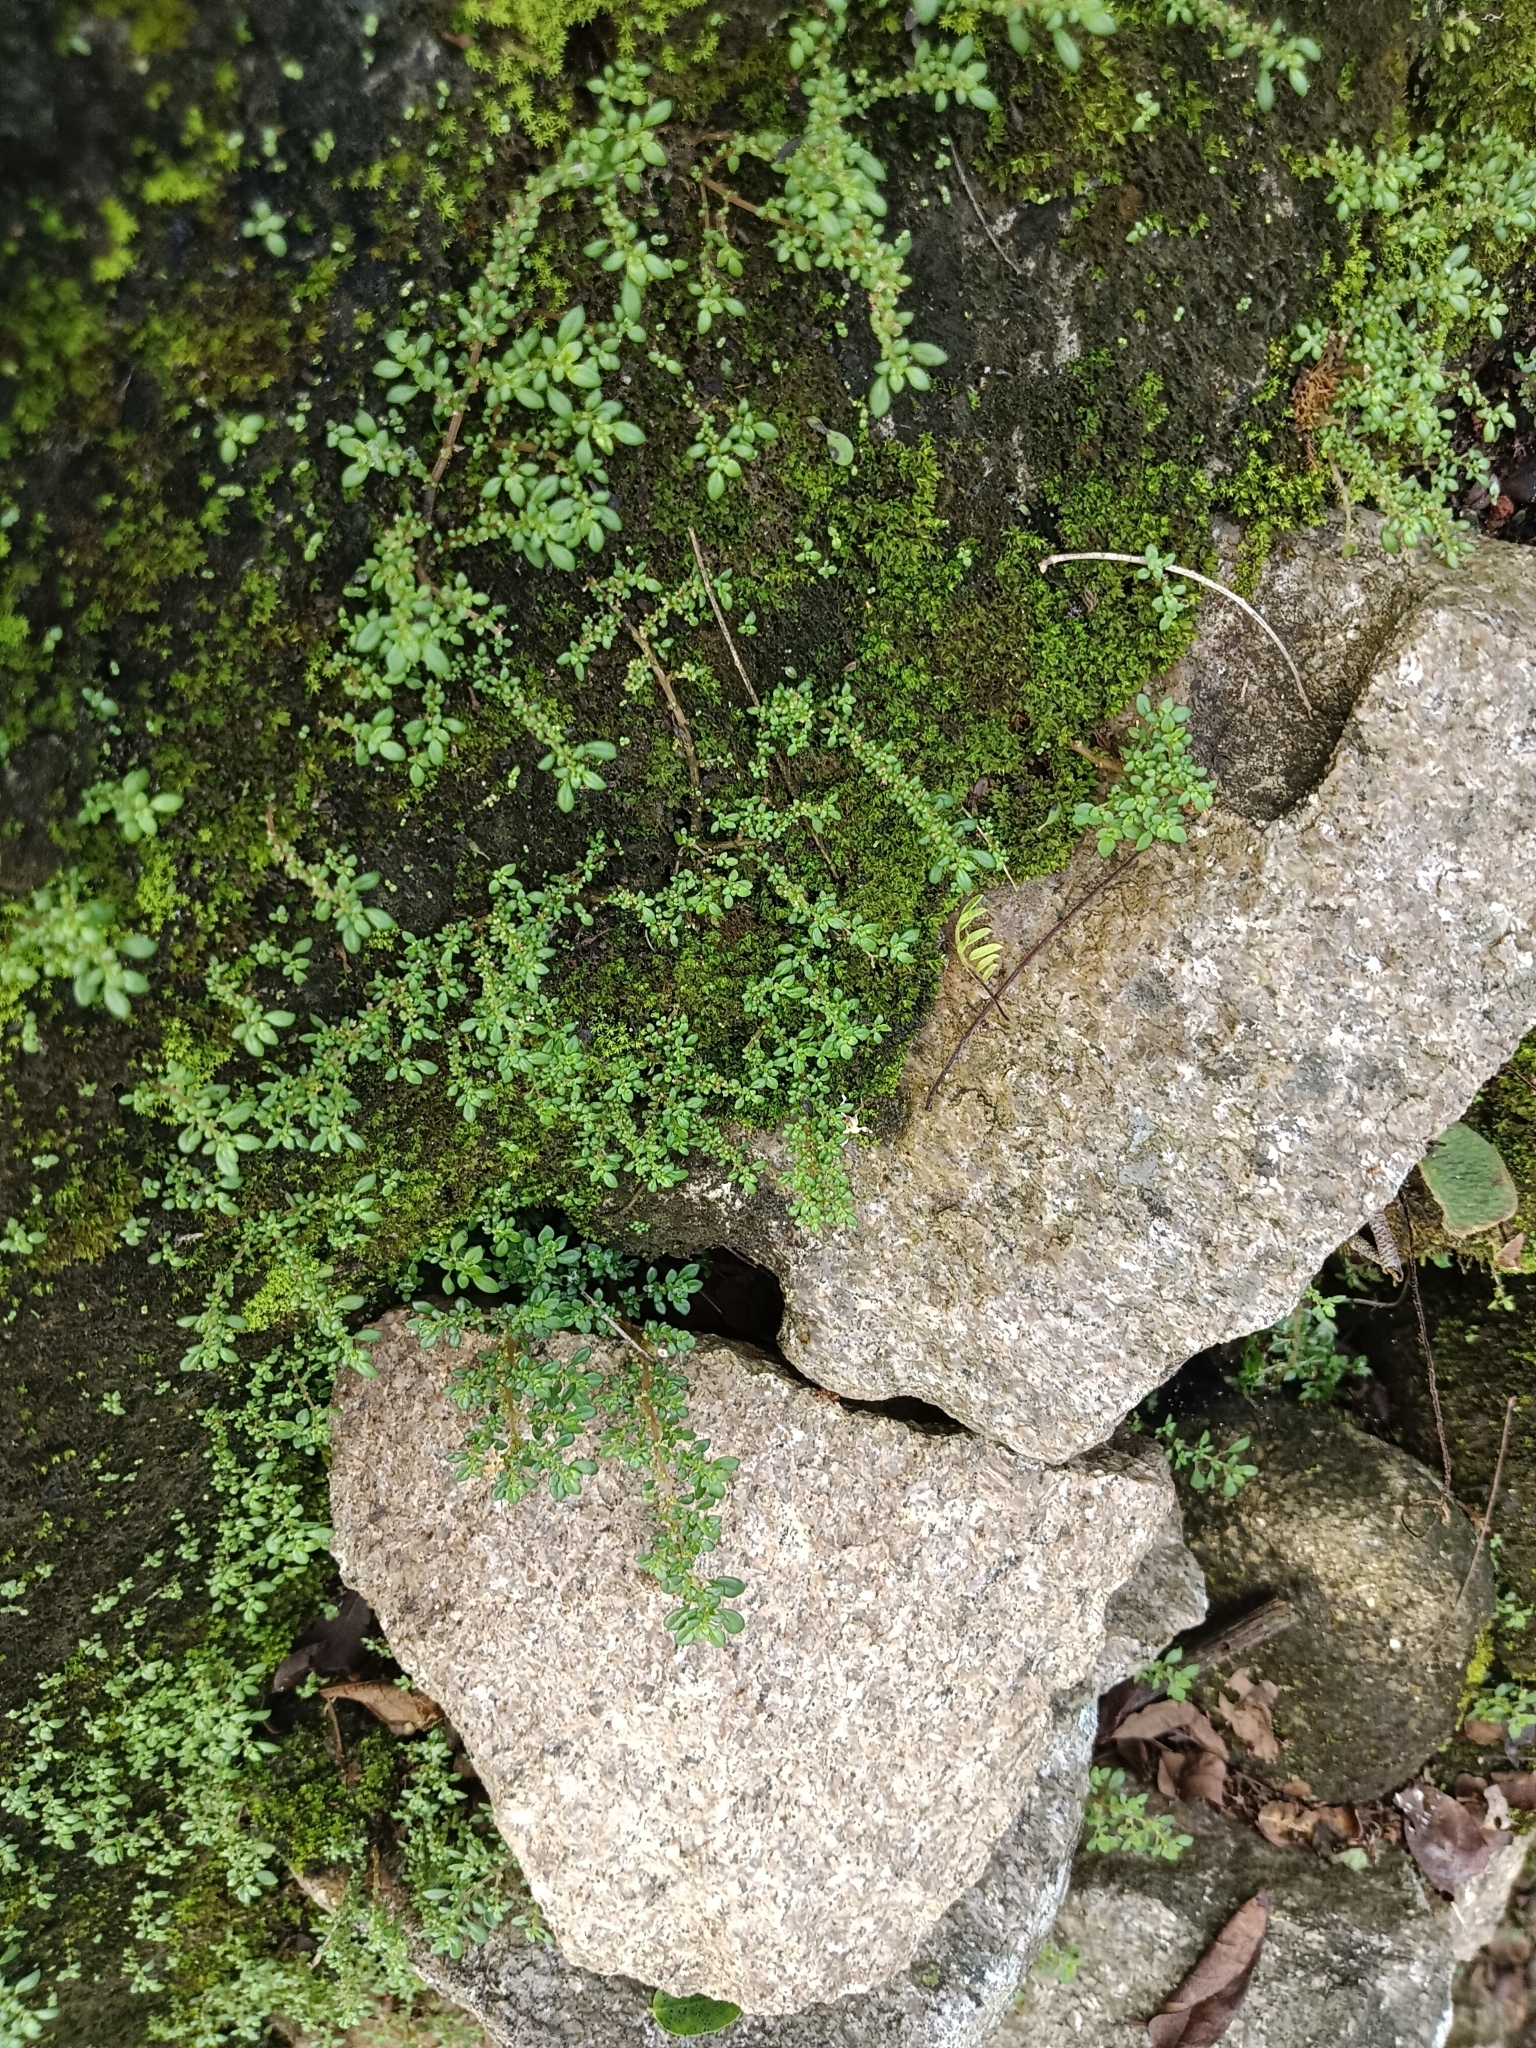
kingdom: Plantae
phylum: Tracheophyta
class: Magnoliopsida
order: Rosales
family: Urticaceae
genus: Pilea
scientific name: Pilea microphylla
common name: Artillery-plant
